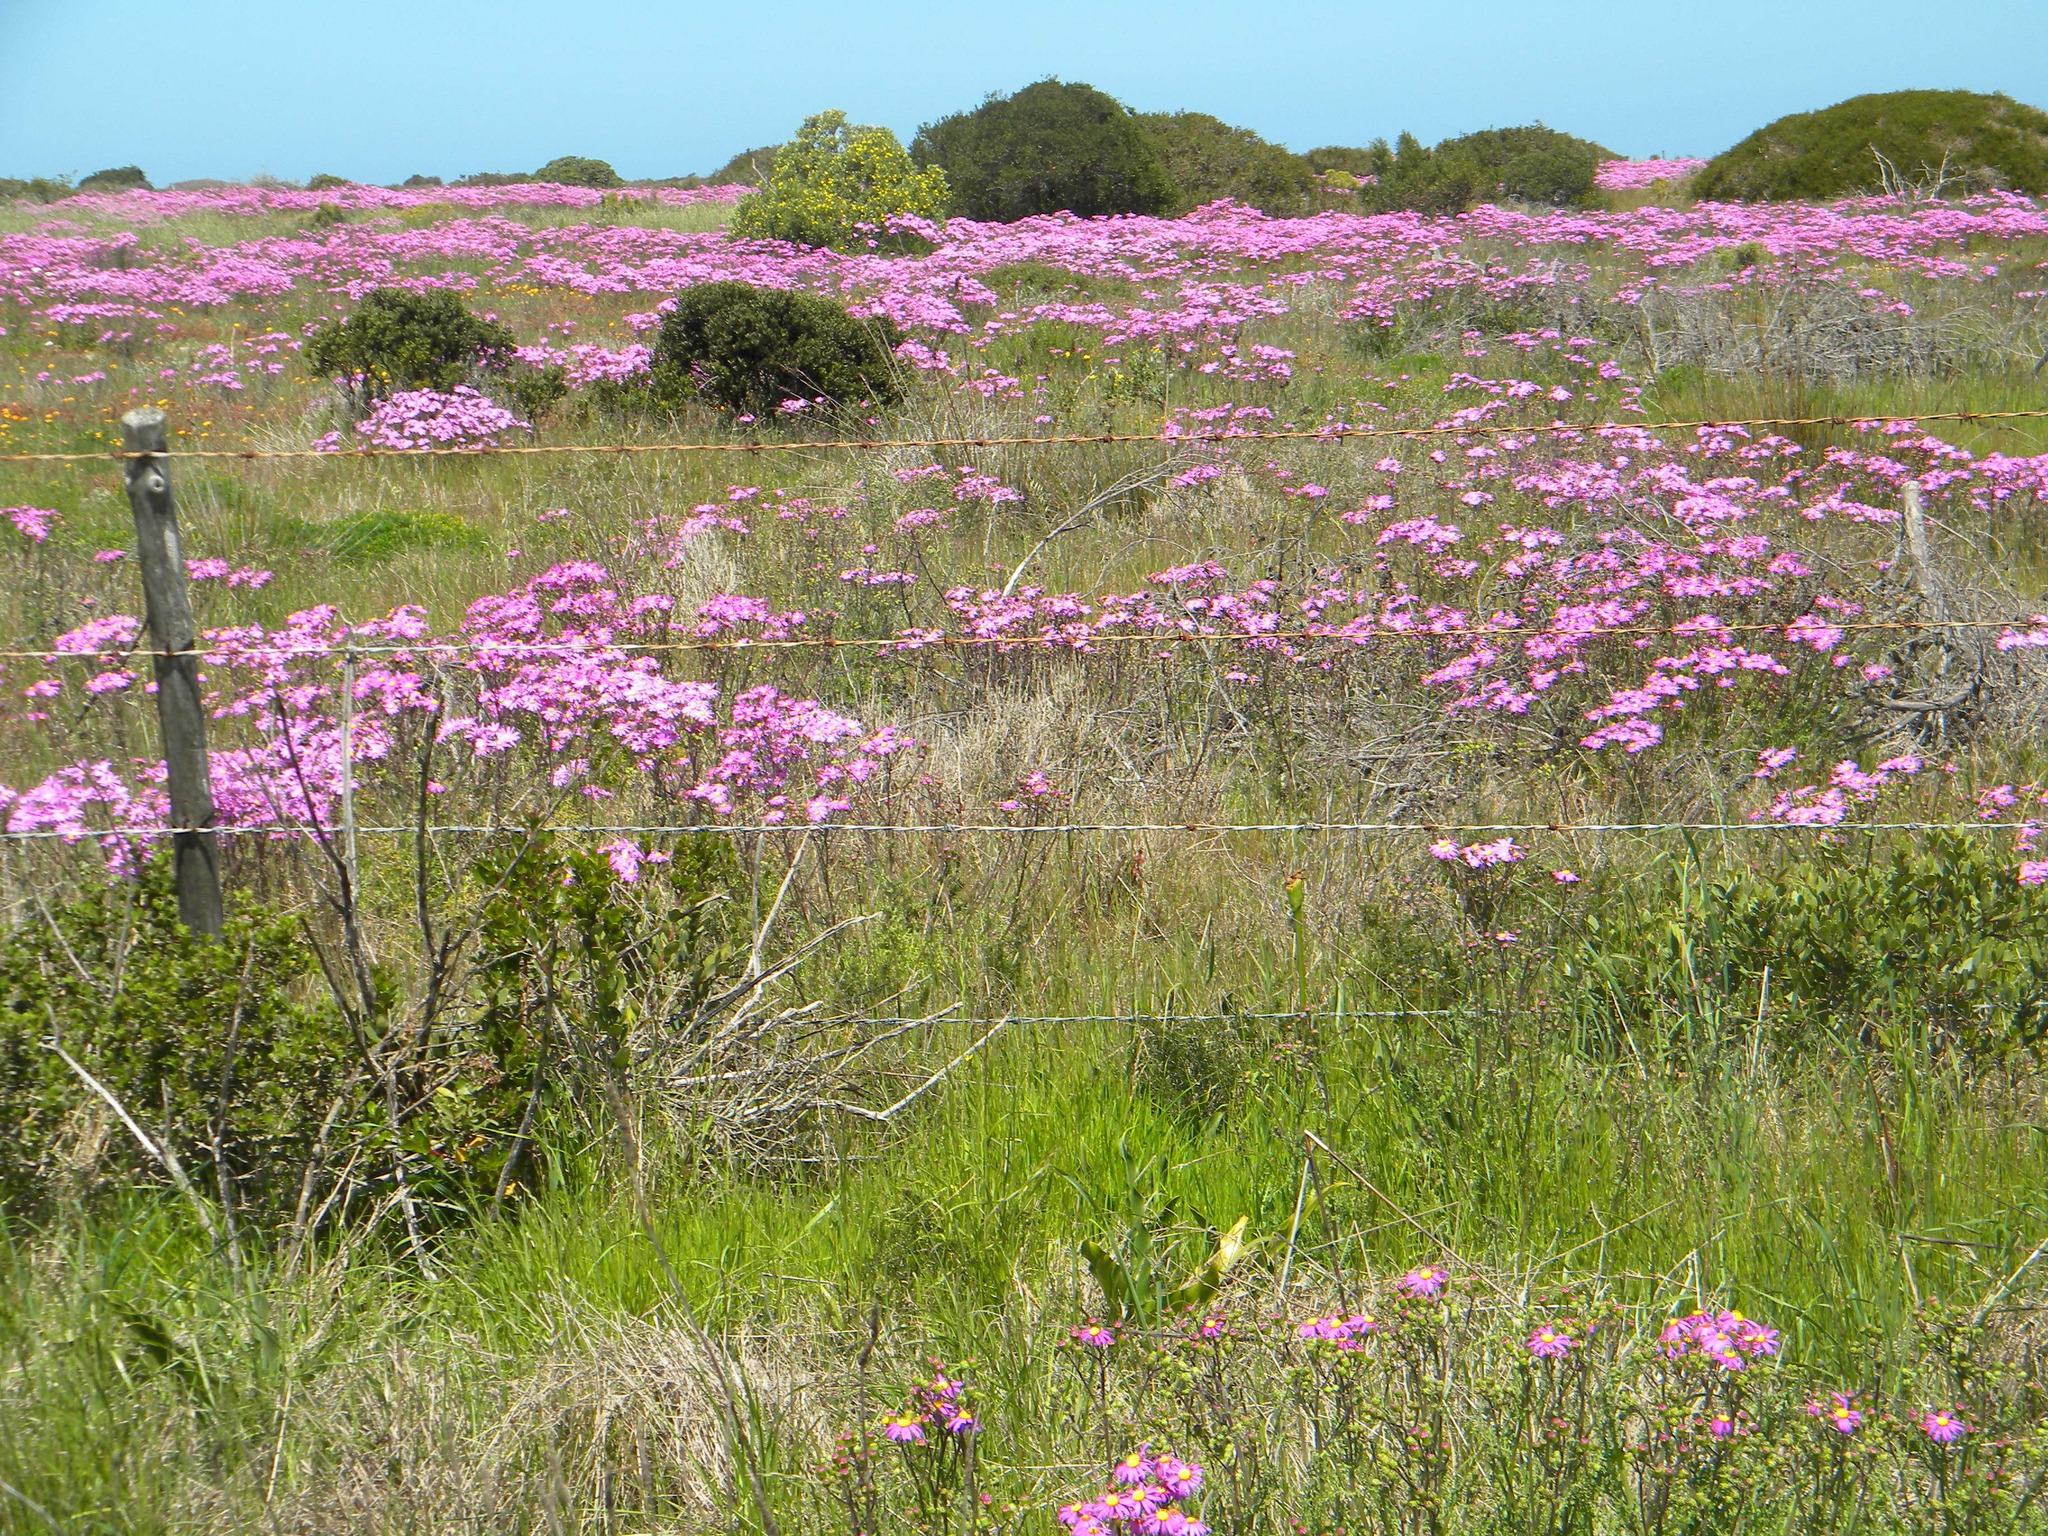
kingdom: Plantae
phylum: Tracheophyta
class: Magnoliopsida
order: Asterales
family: Asteraceae
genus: Senecio
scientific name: Senecio elegans
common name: Purple groundsel
